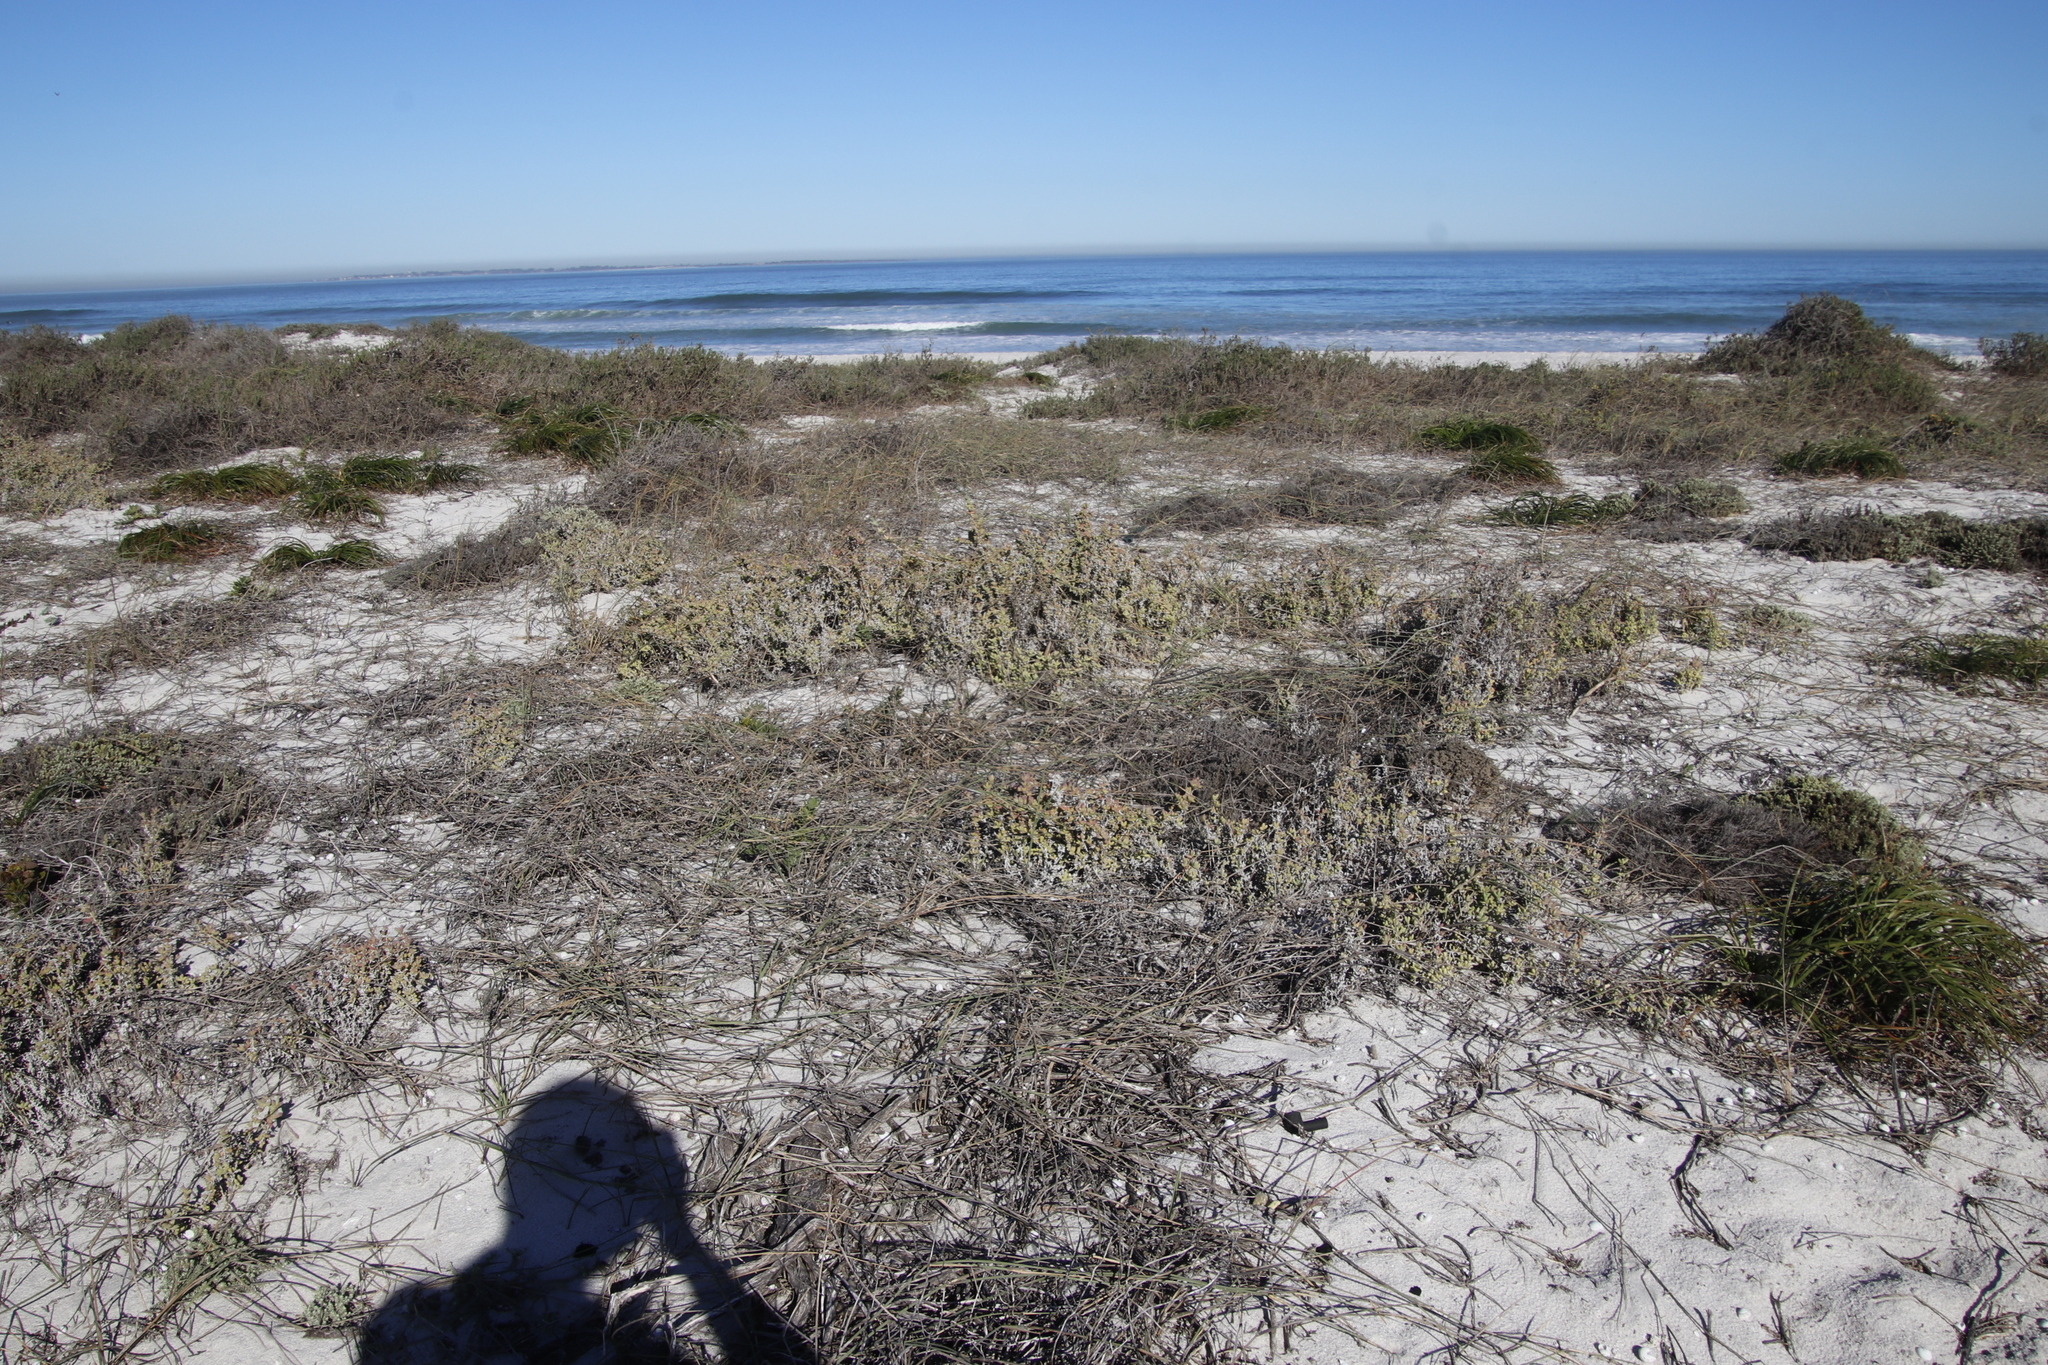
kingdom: Plantae
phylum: Tracheophyta
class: Magnoliopsida
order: Caryophyllales
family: Aizoaceae
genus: Amphibolia
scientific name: Amphibolia laevis
